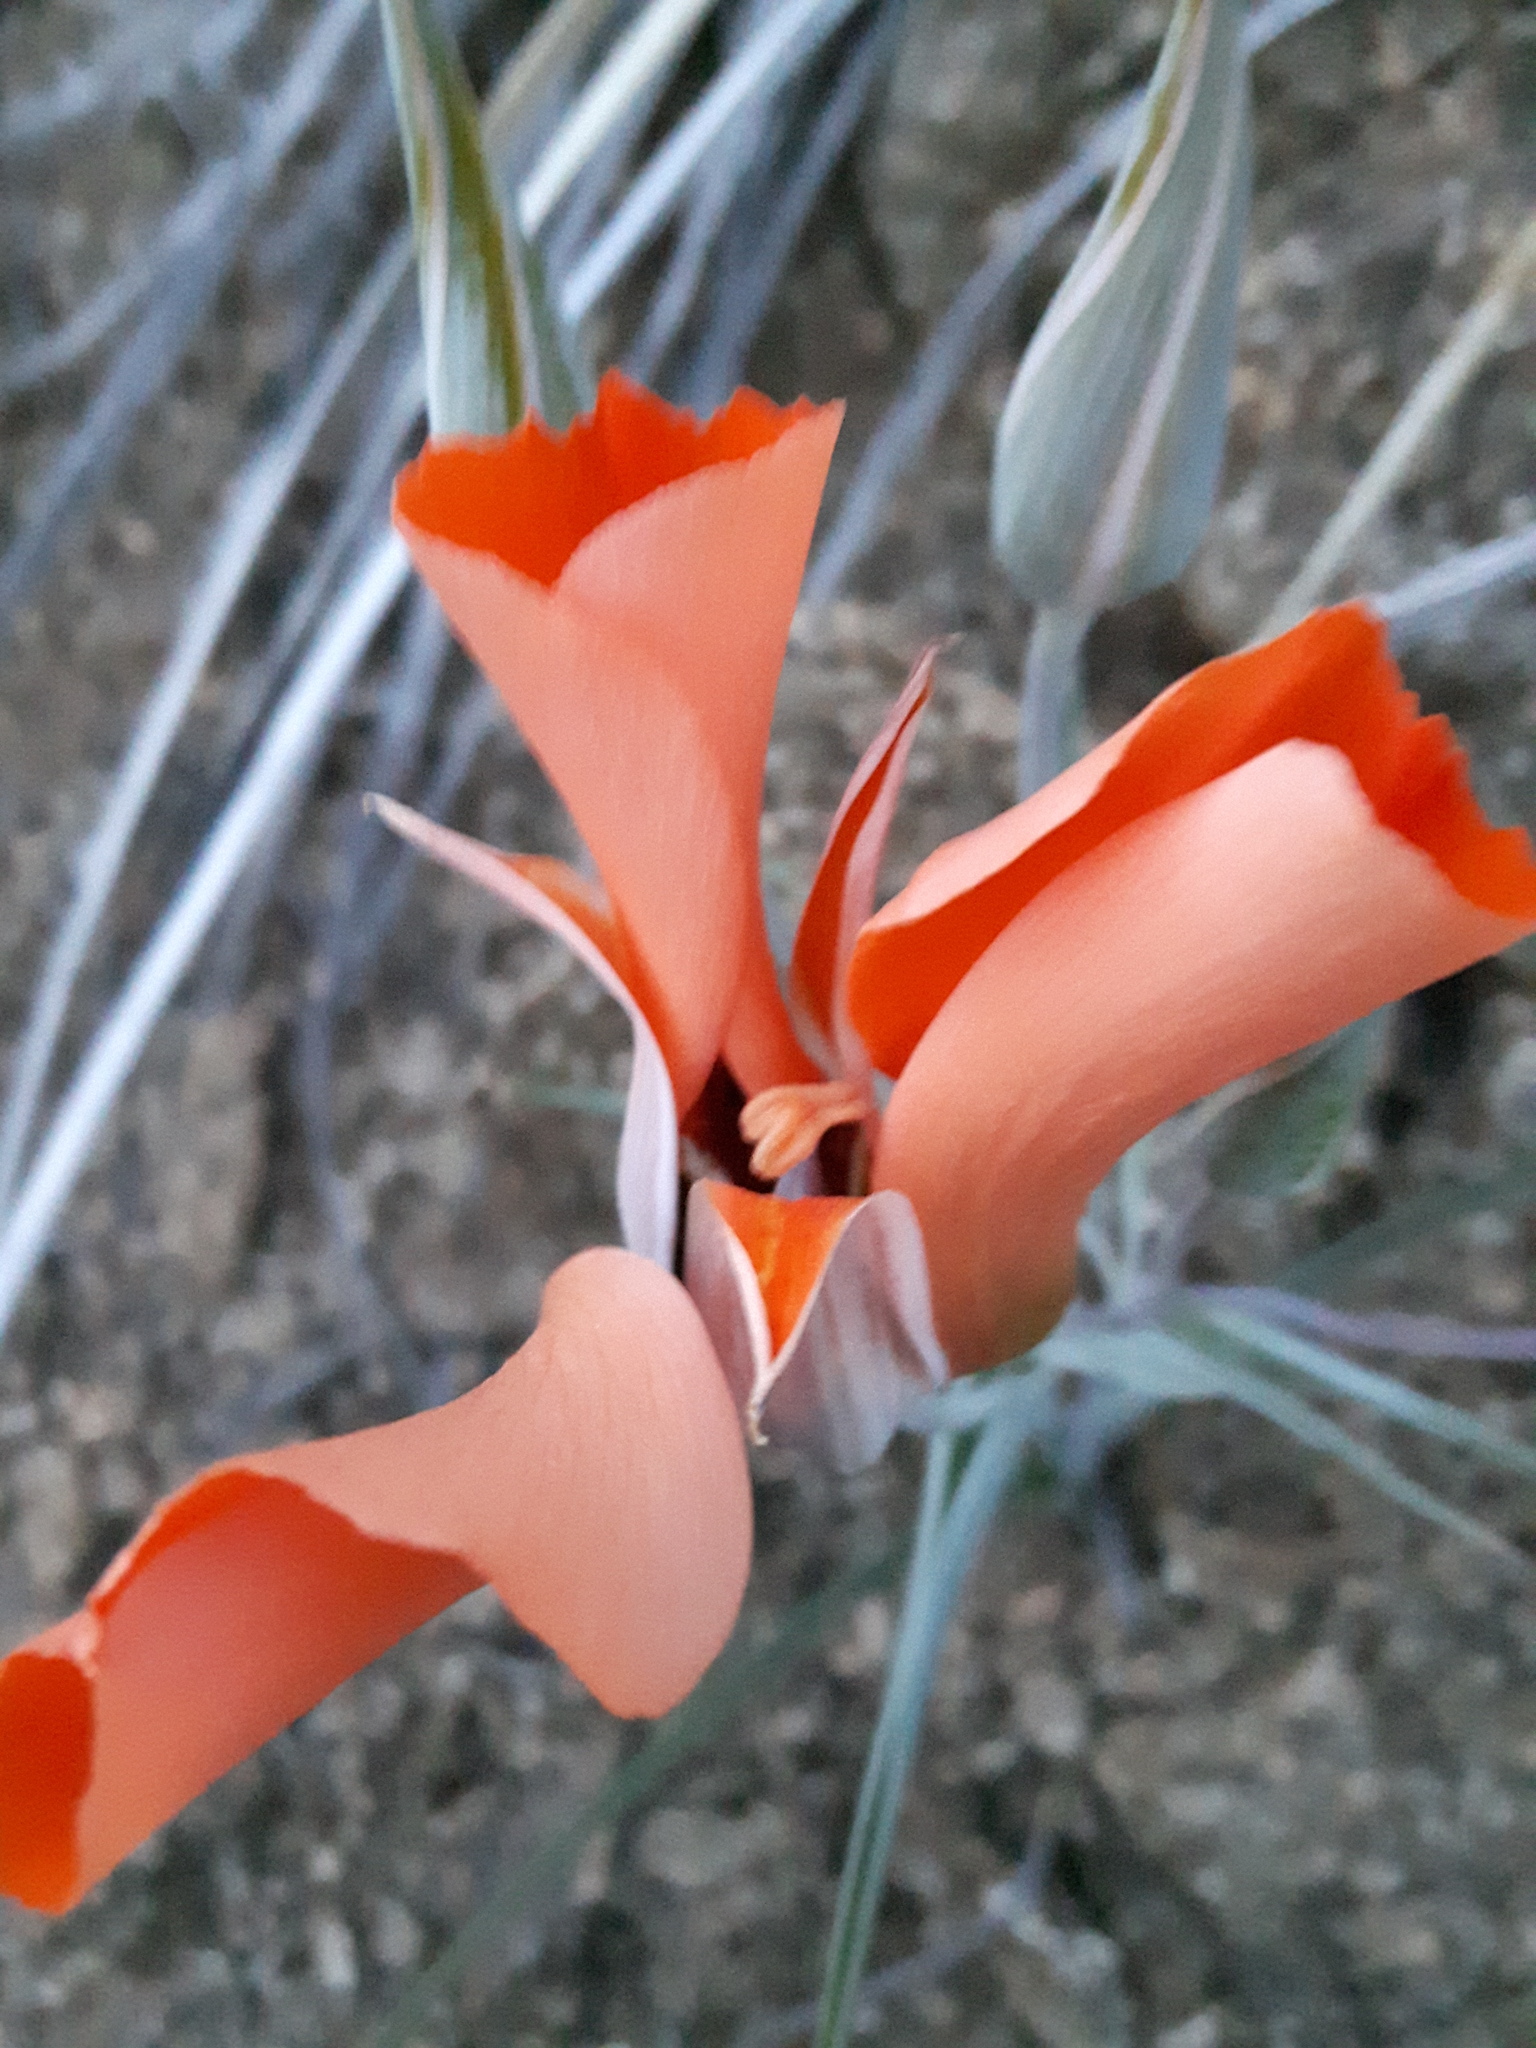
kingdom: Plantae
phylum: Tracheophyta
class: Liliopsida
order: Liliales
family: Liliaceae
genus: Calochortus
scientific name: Calochortus kennedyi
